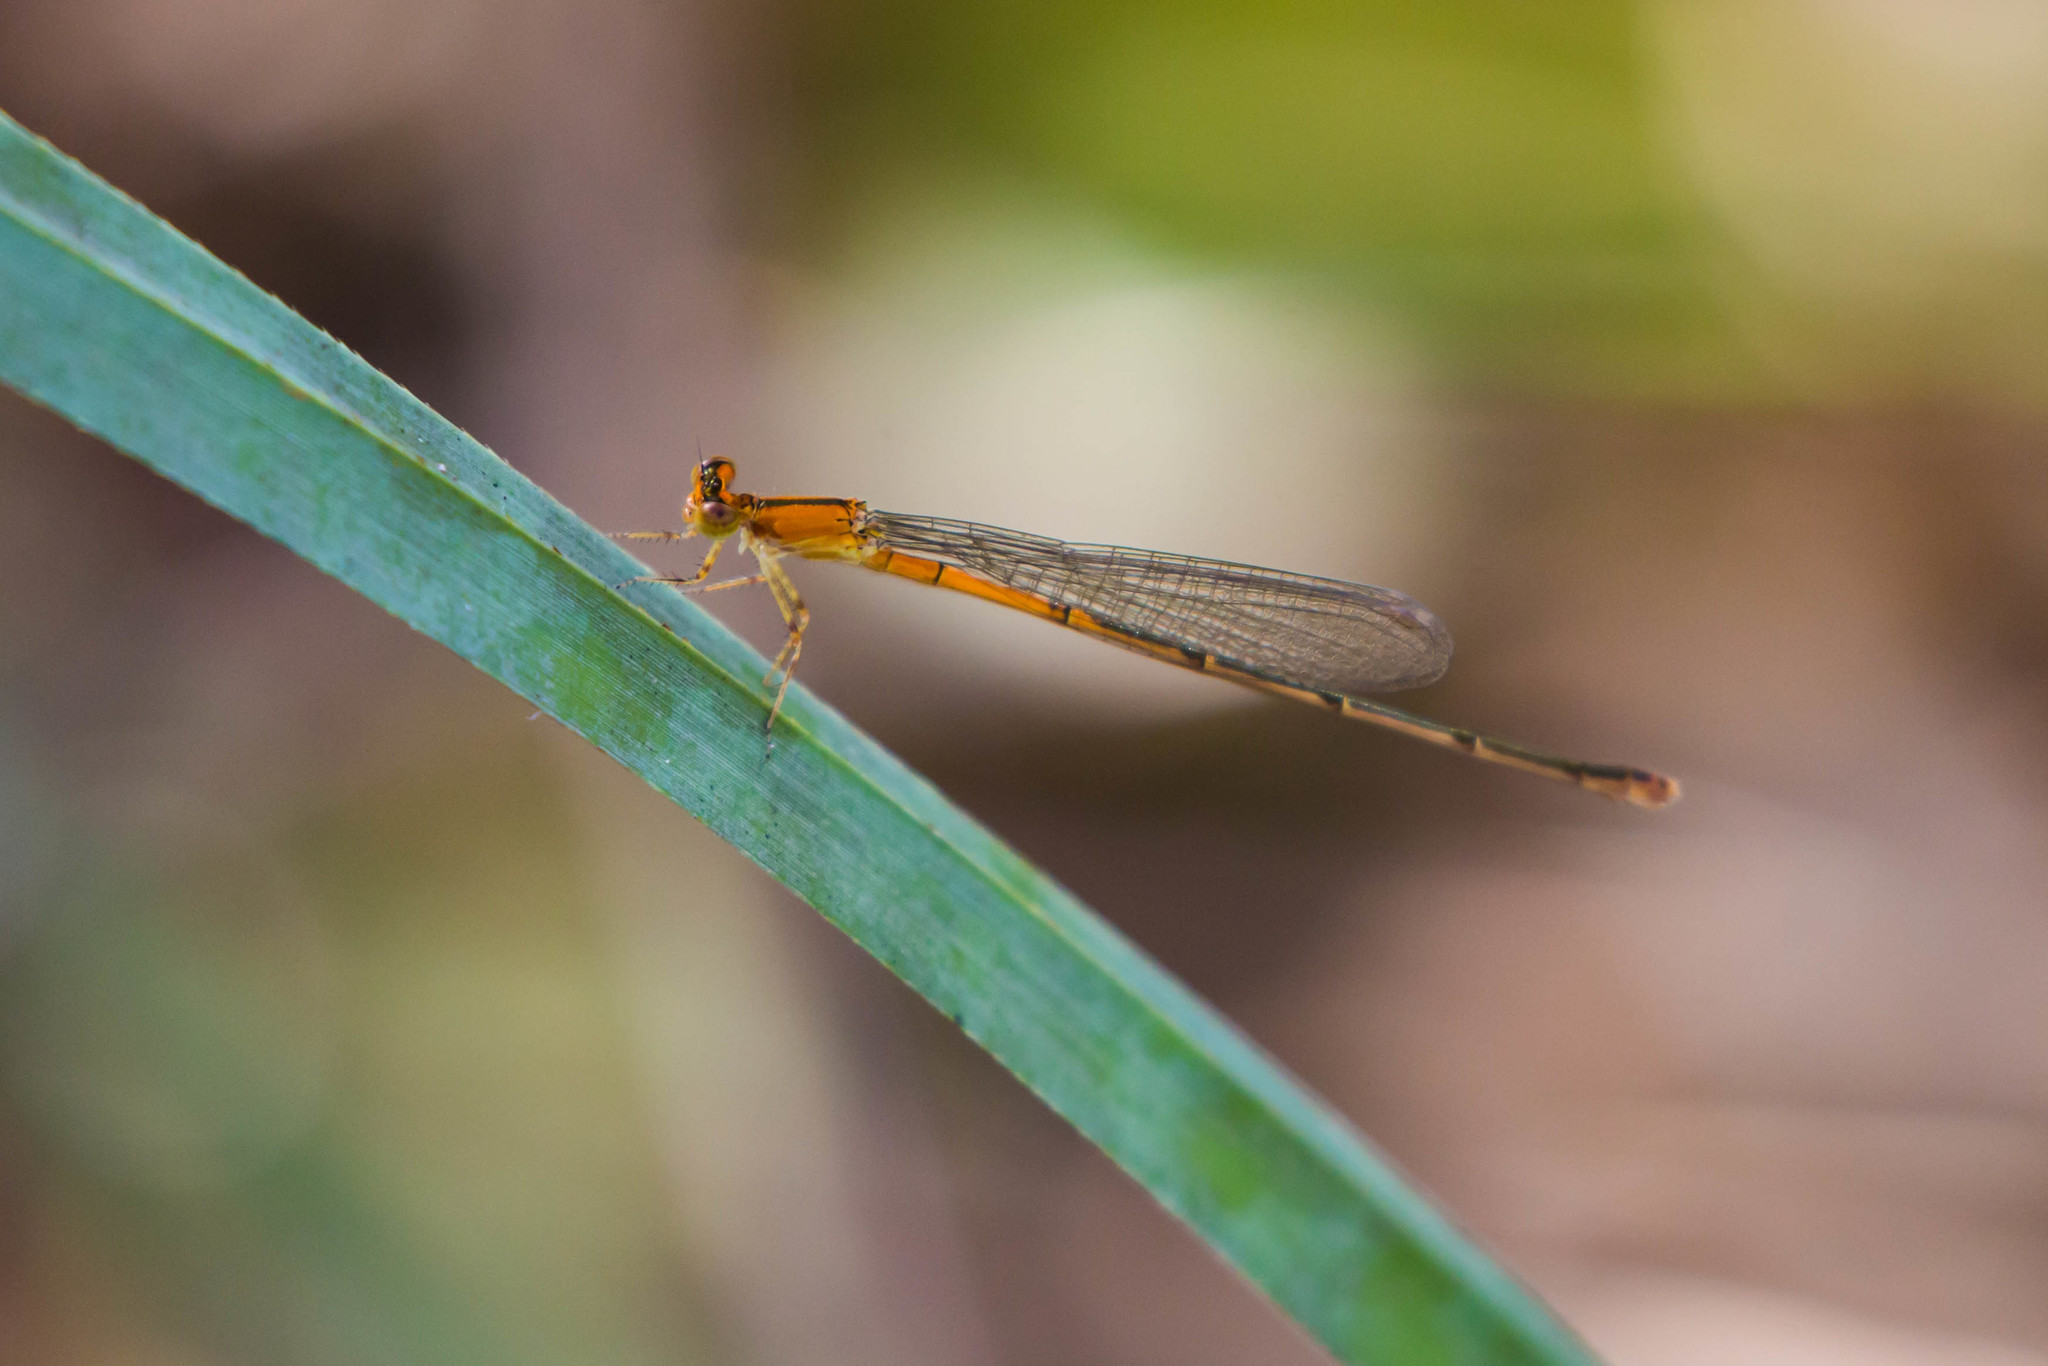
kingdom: Animalia
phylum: Arthropoda
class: Insecta
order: Odonata
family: Coenagrionidae
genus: Ischnura
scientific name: Ischnura hastata
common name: Citrine forktail
